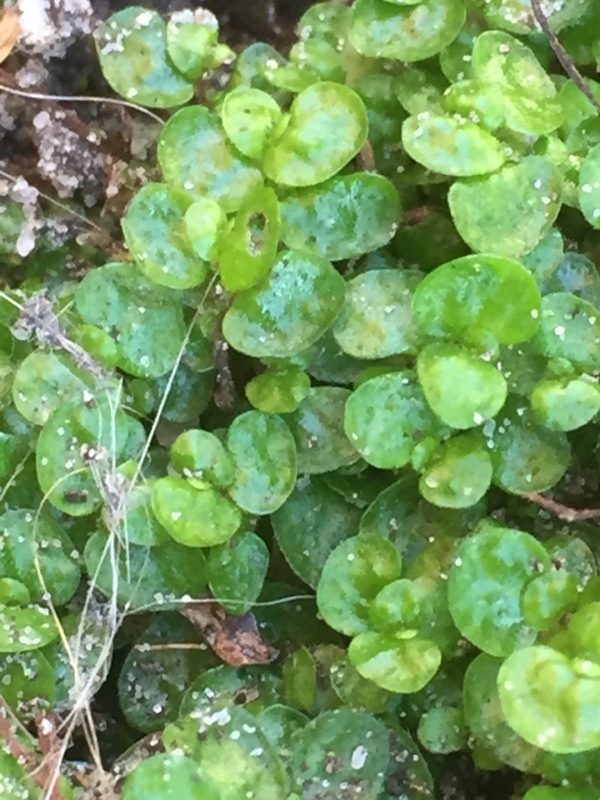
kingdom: Plantae
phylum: Tracheophyta
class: Magnoliopsida
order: Rosales
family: Urticaceae
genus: Soleirolia
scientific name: Soleirolia soleirolii
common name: Mind-your-own-business
